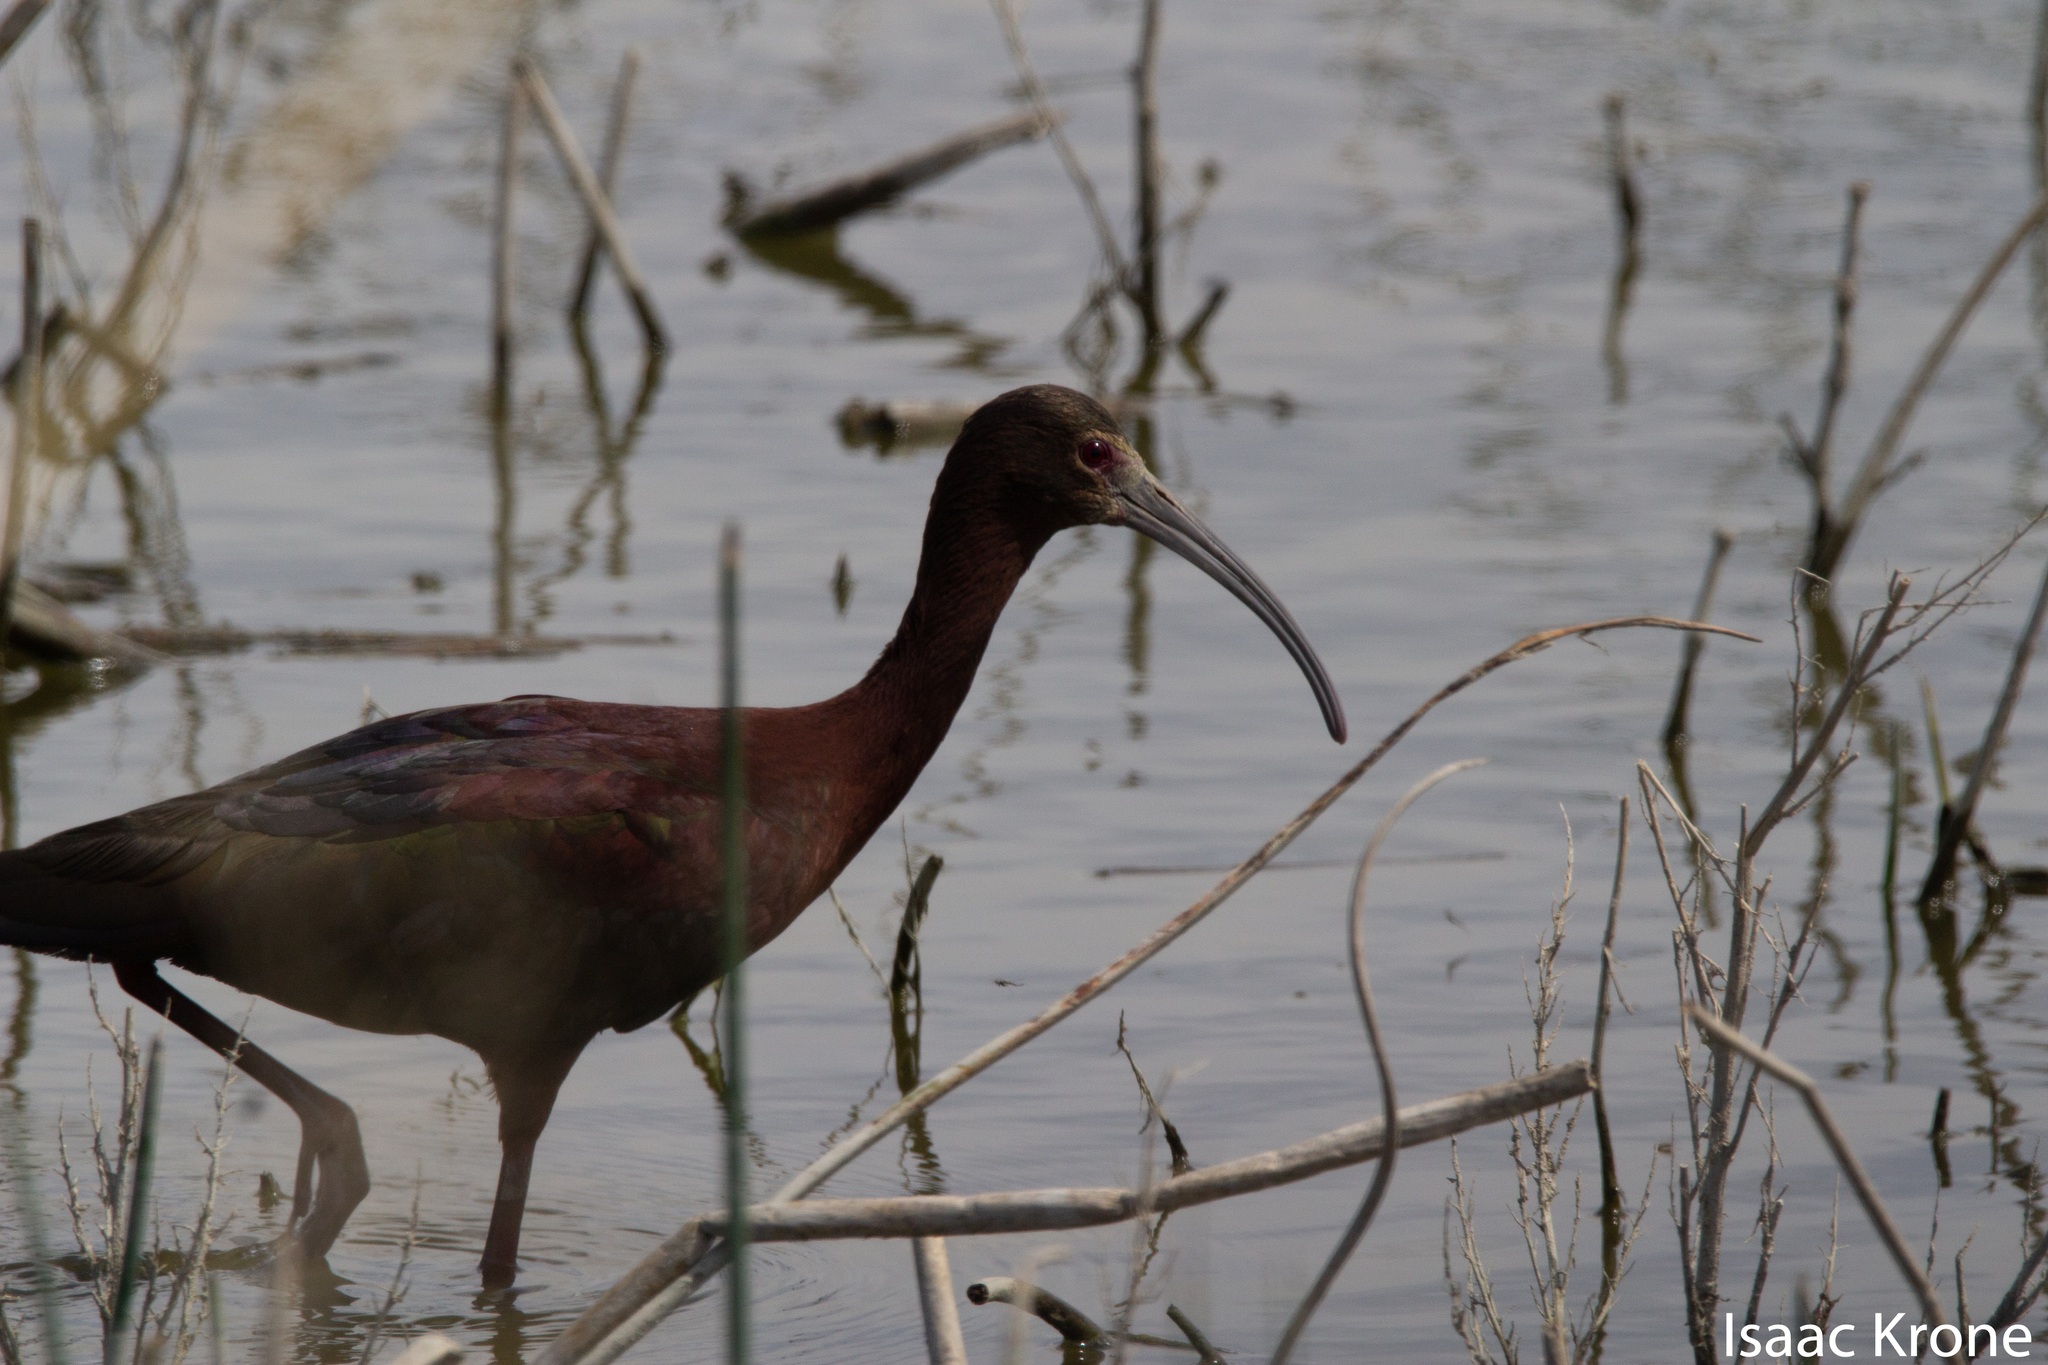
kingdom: Animalia
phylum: Chordata
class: Aves
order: Pelecaniformes
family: Threskiornithidae
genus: Plegadis
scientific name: Plegadis chihi
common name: White-faced ibis
